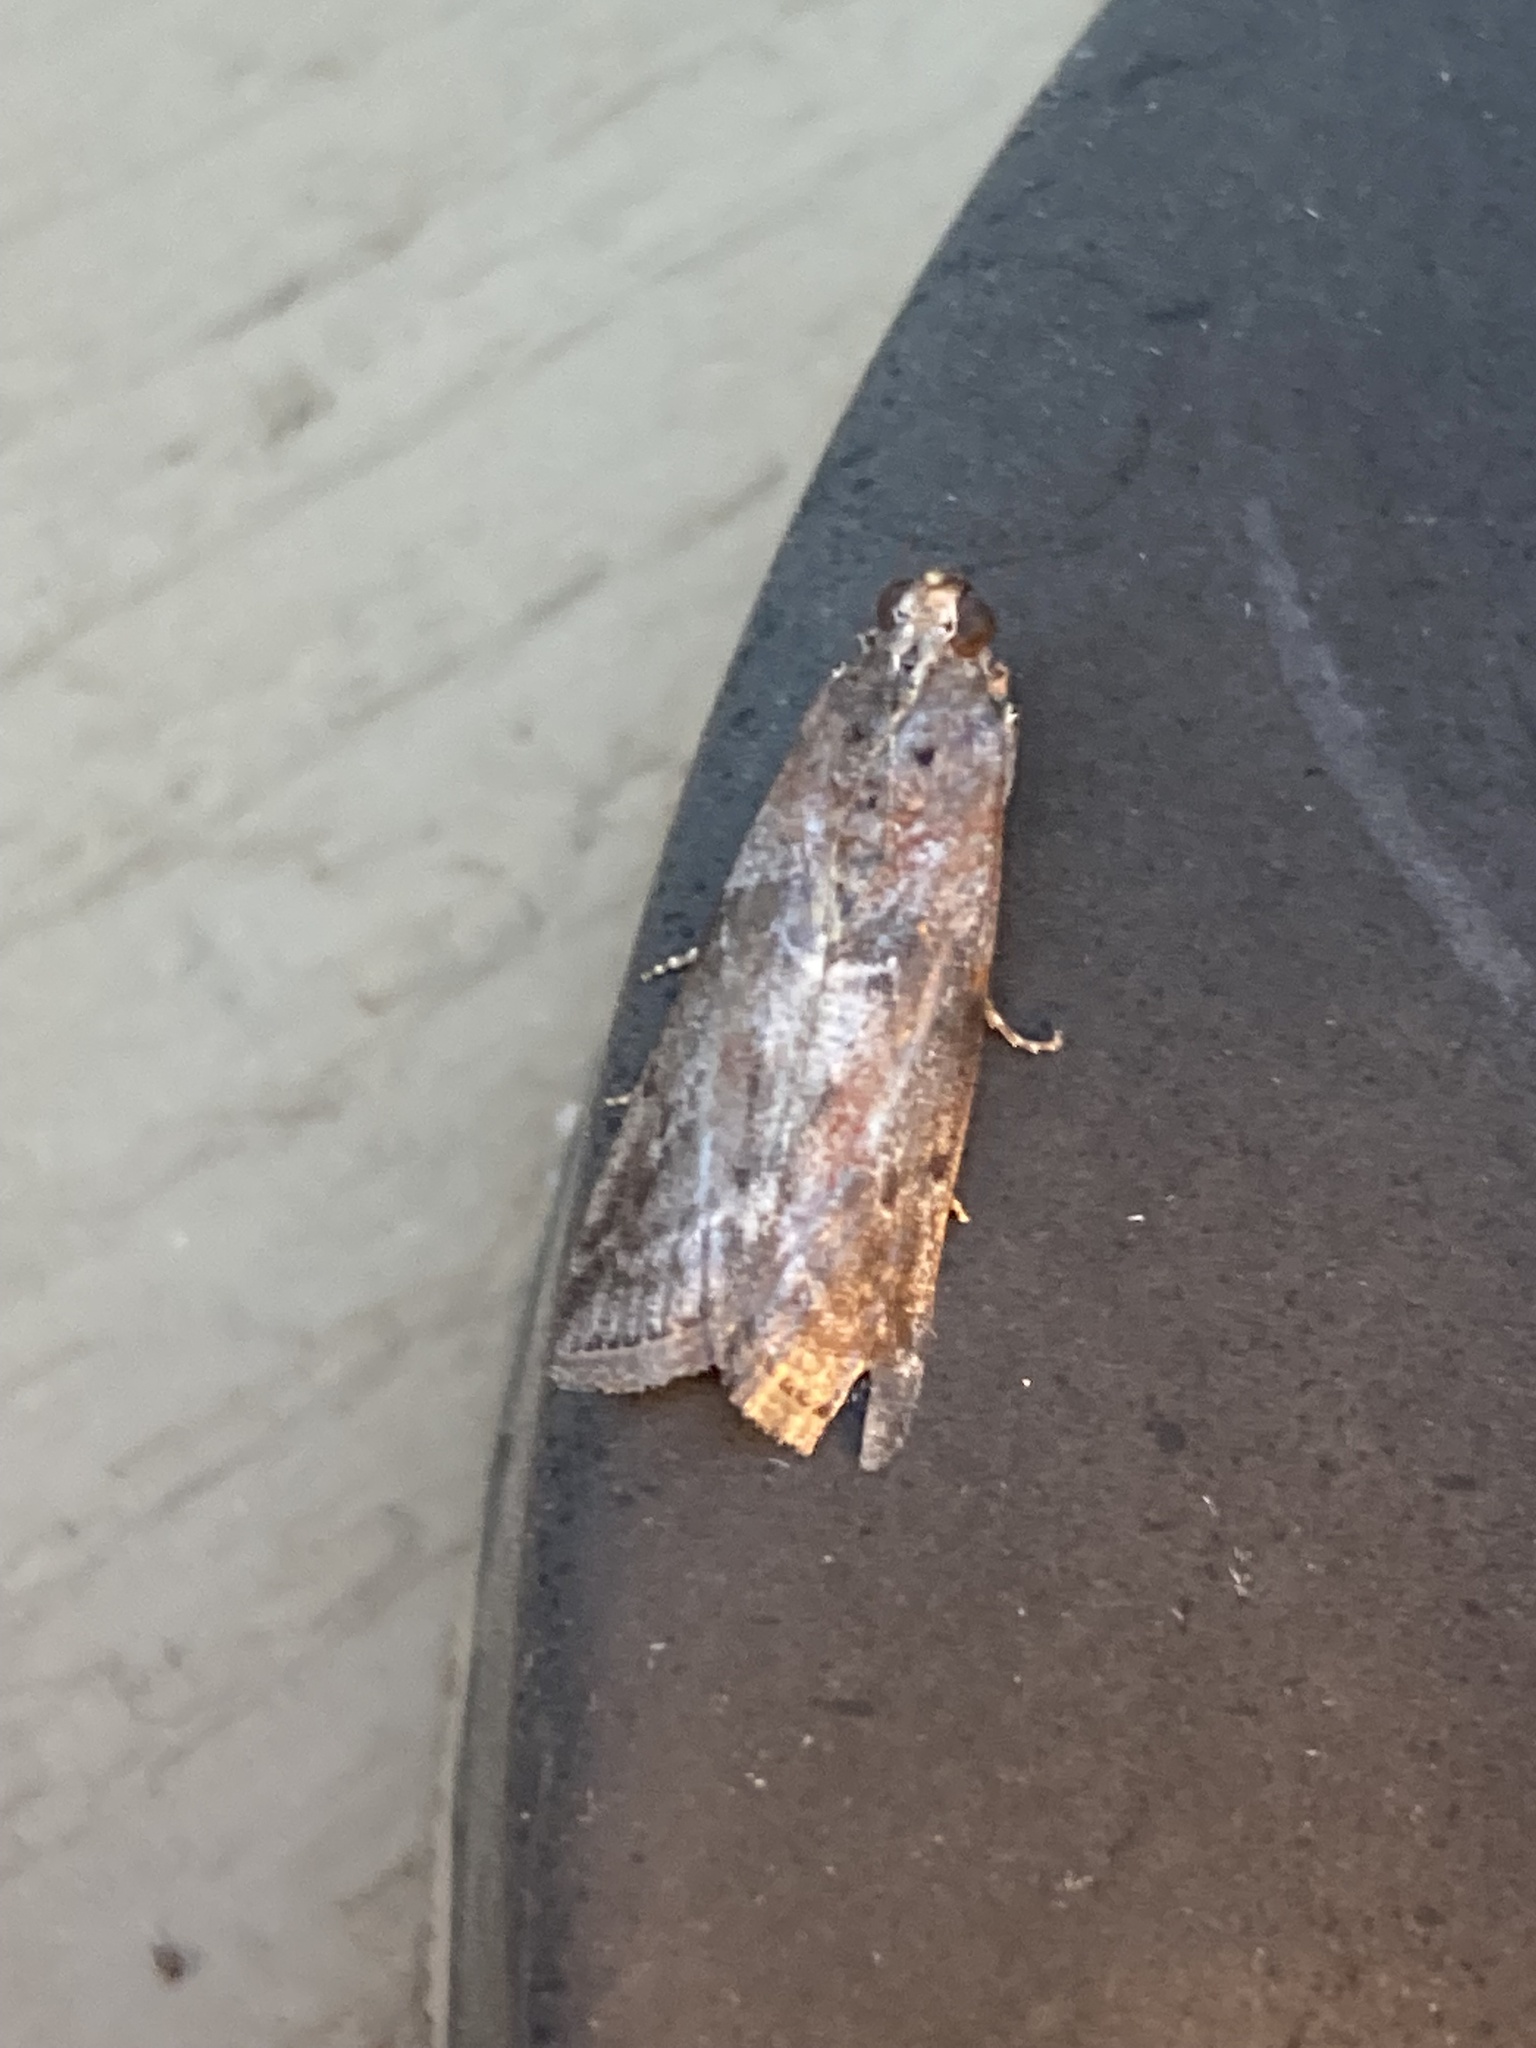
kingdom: Animalia
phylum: Arthropoda
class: Insecta
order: Lepidoptera
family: Pyralidae
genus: Sciota
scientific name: Sciota virgatella
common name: Black-spotted leafroller moth
